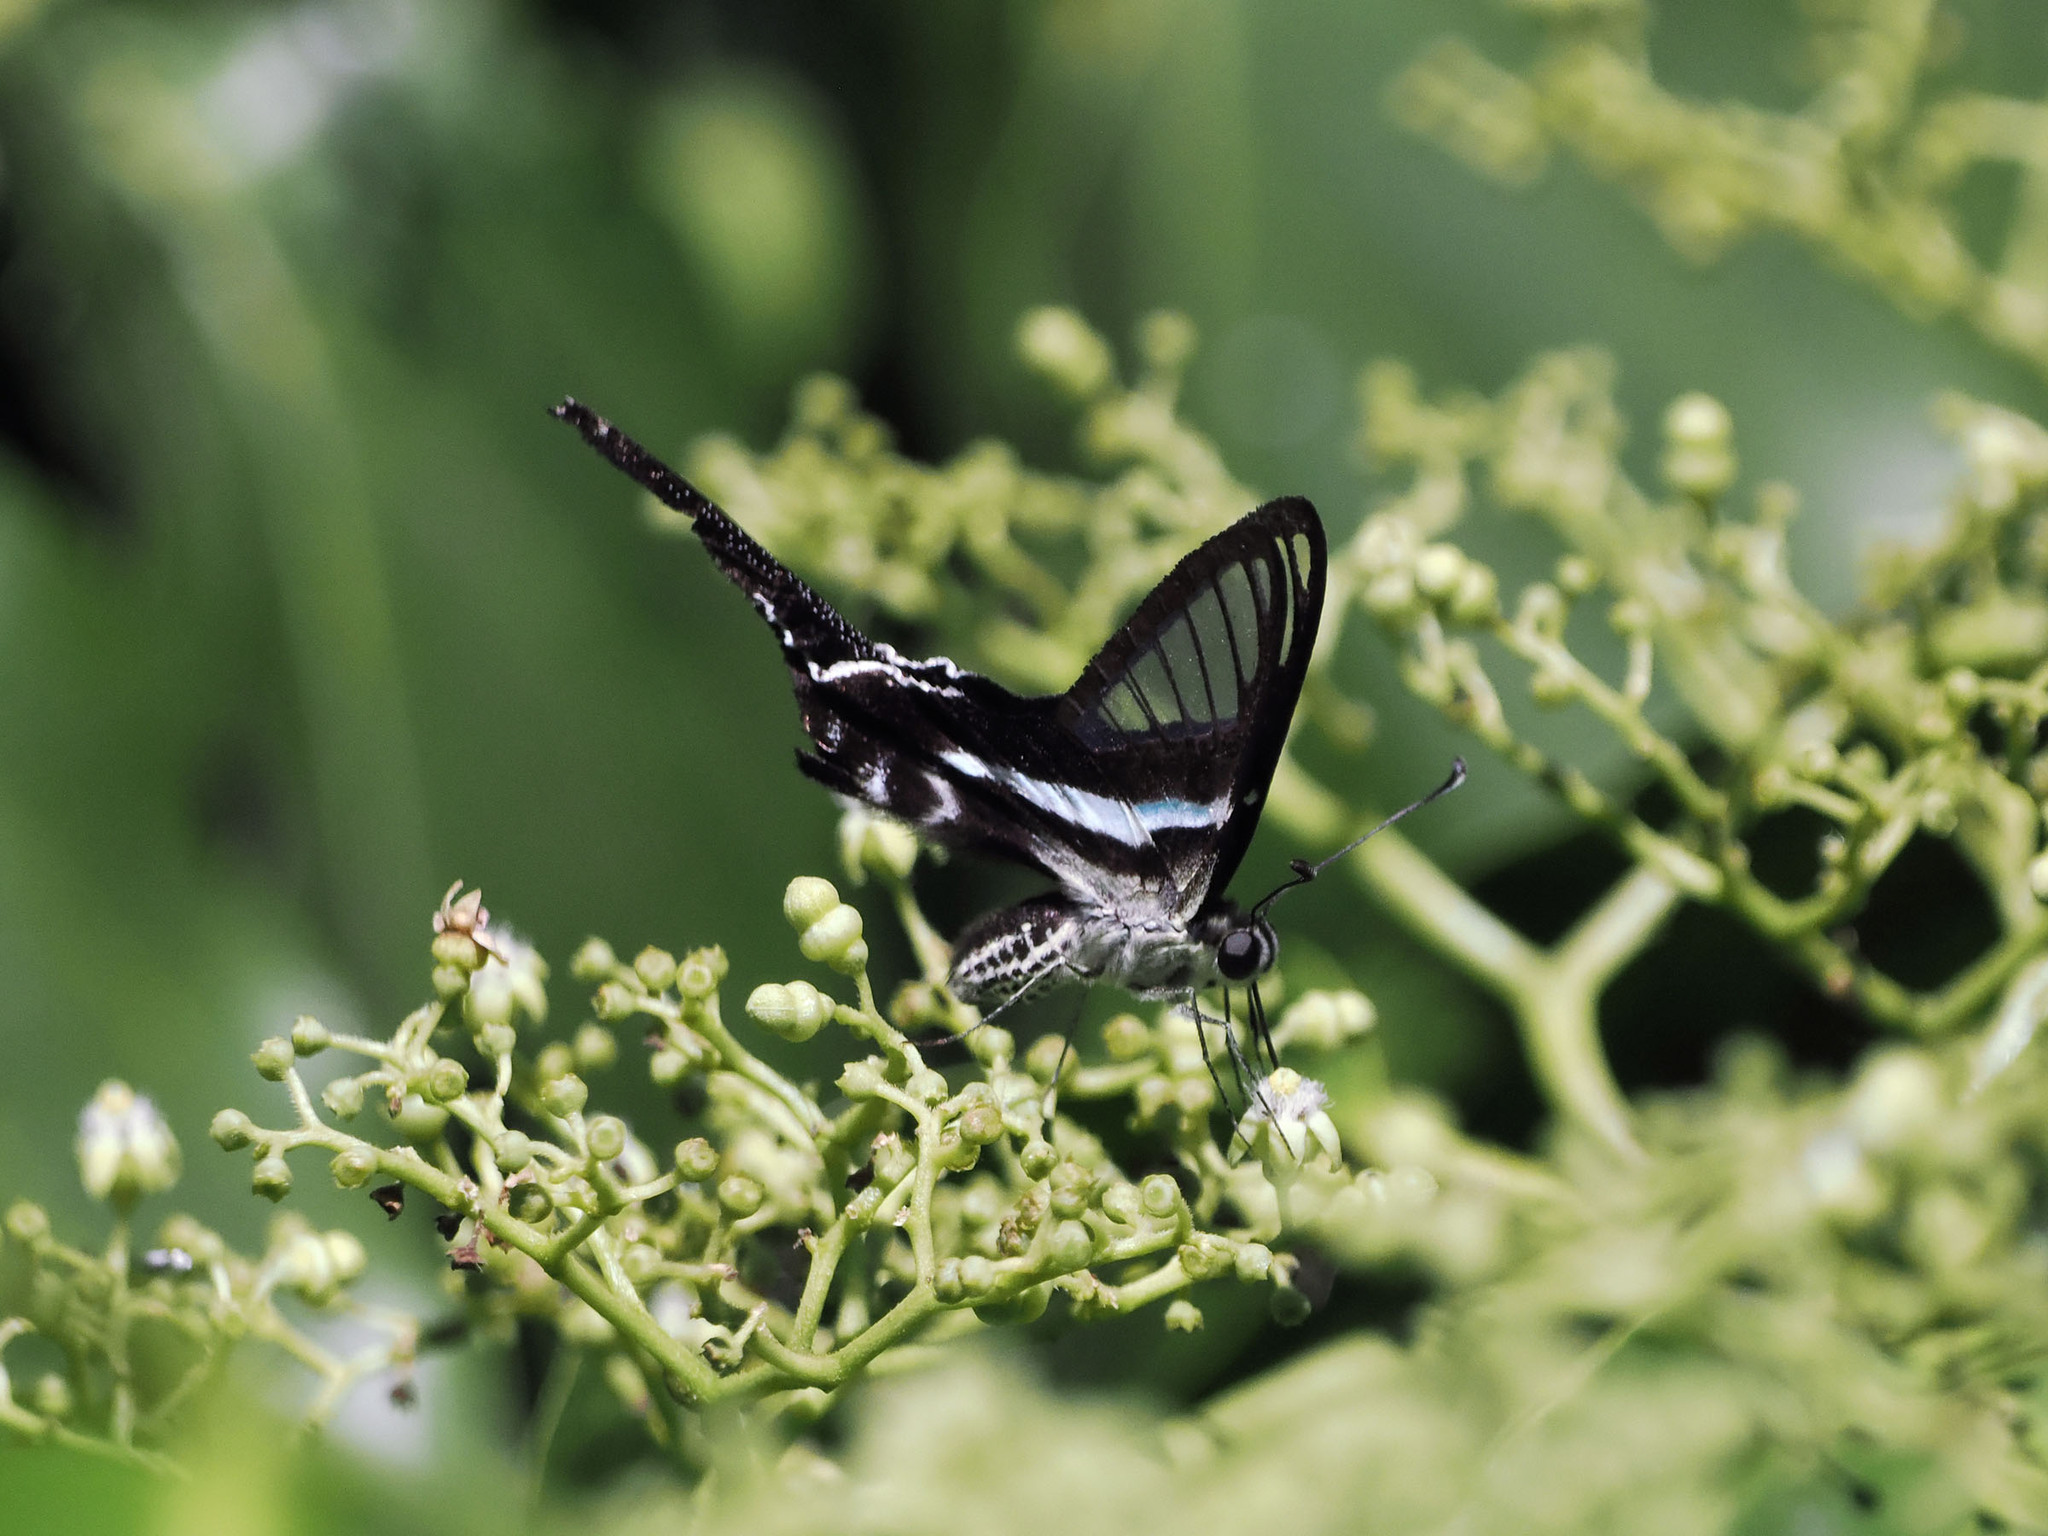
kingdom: Animalia
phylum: Arthropoda
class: Insecta
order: Lepidoptera
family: Papilionidae
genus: Lamproptera
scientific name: Lamproptera meges
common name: Green dragontail
